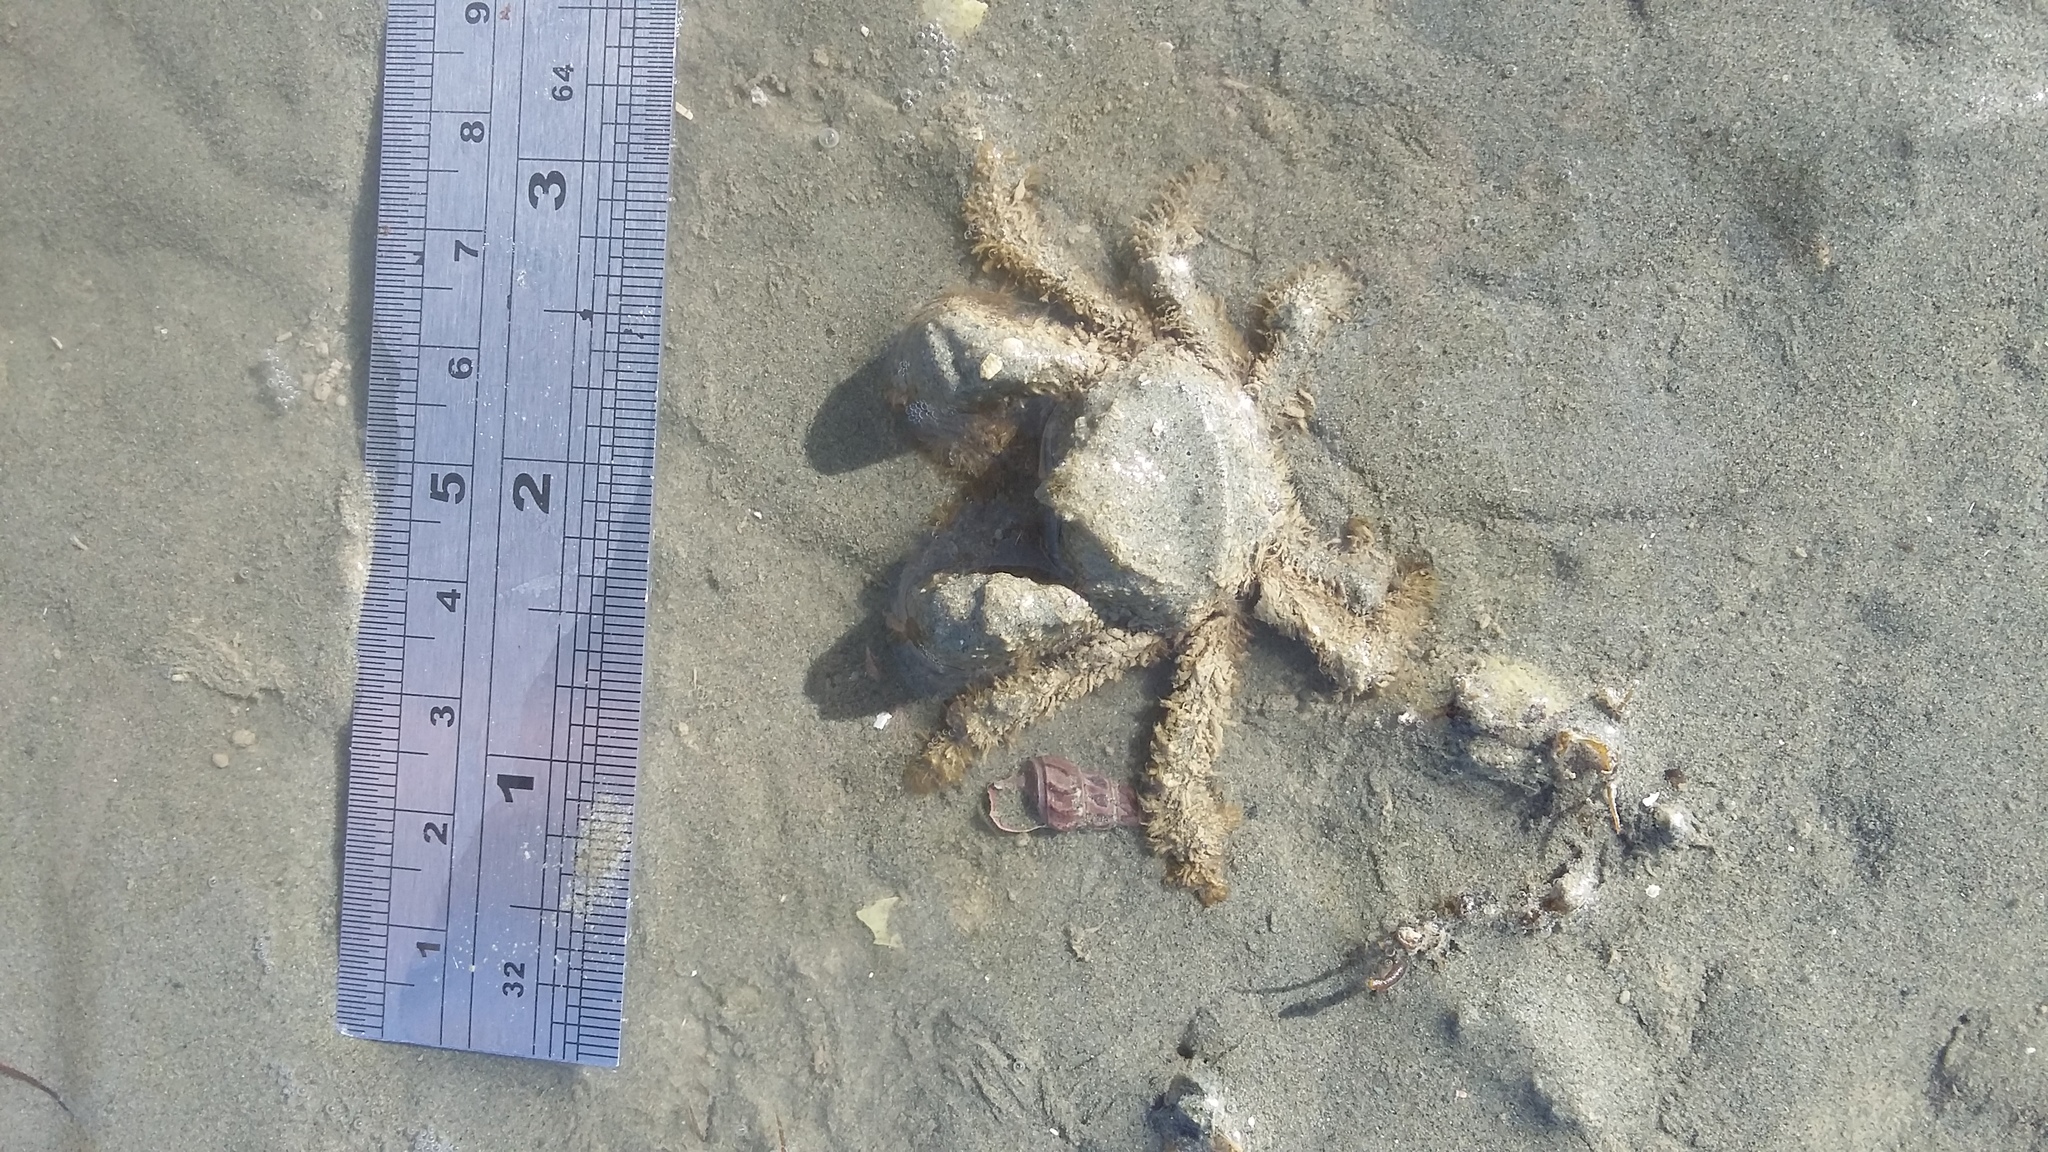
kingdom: Animalia
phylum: Arthropoda
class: Malacostraca
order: Decapoda
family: Hymenosomatidae
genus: Halicarcinus
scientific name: Halicarcinus whitei
